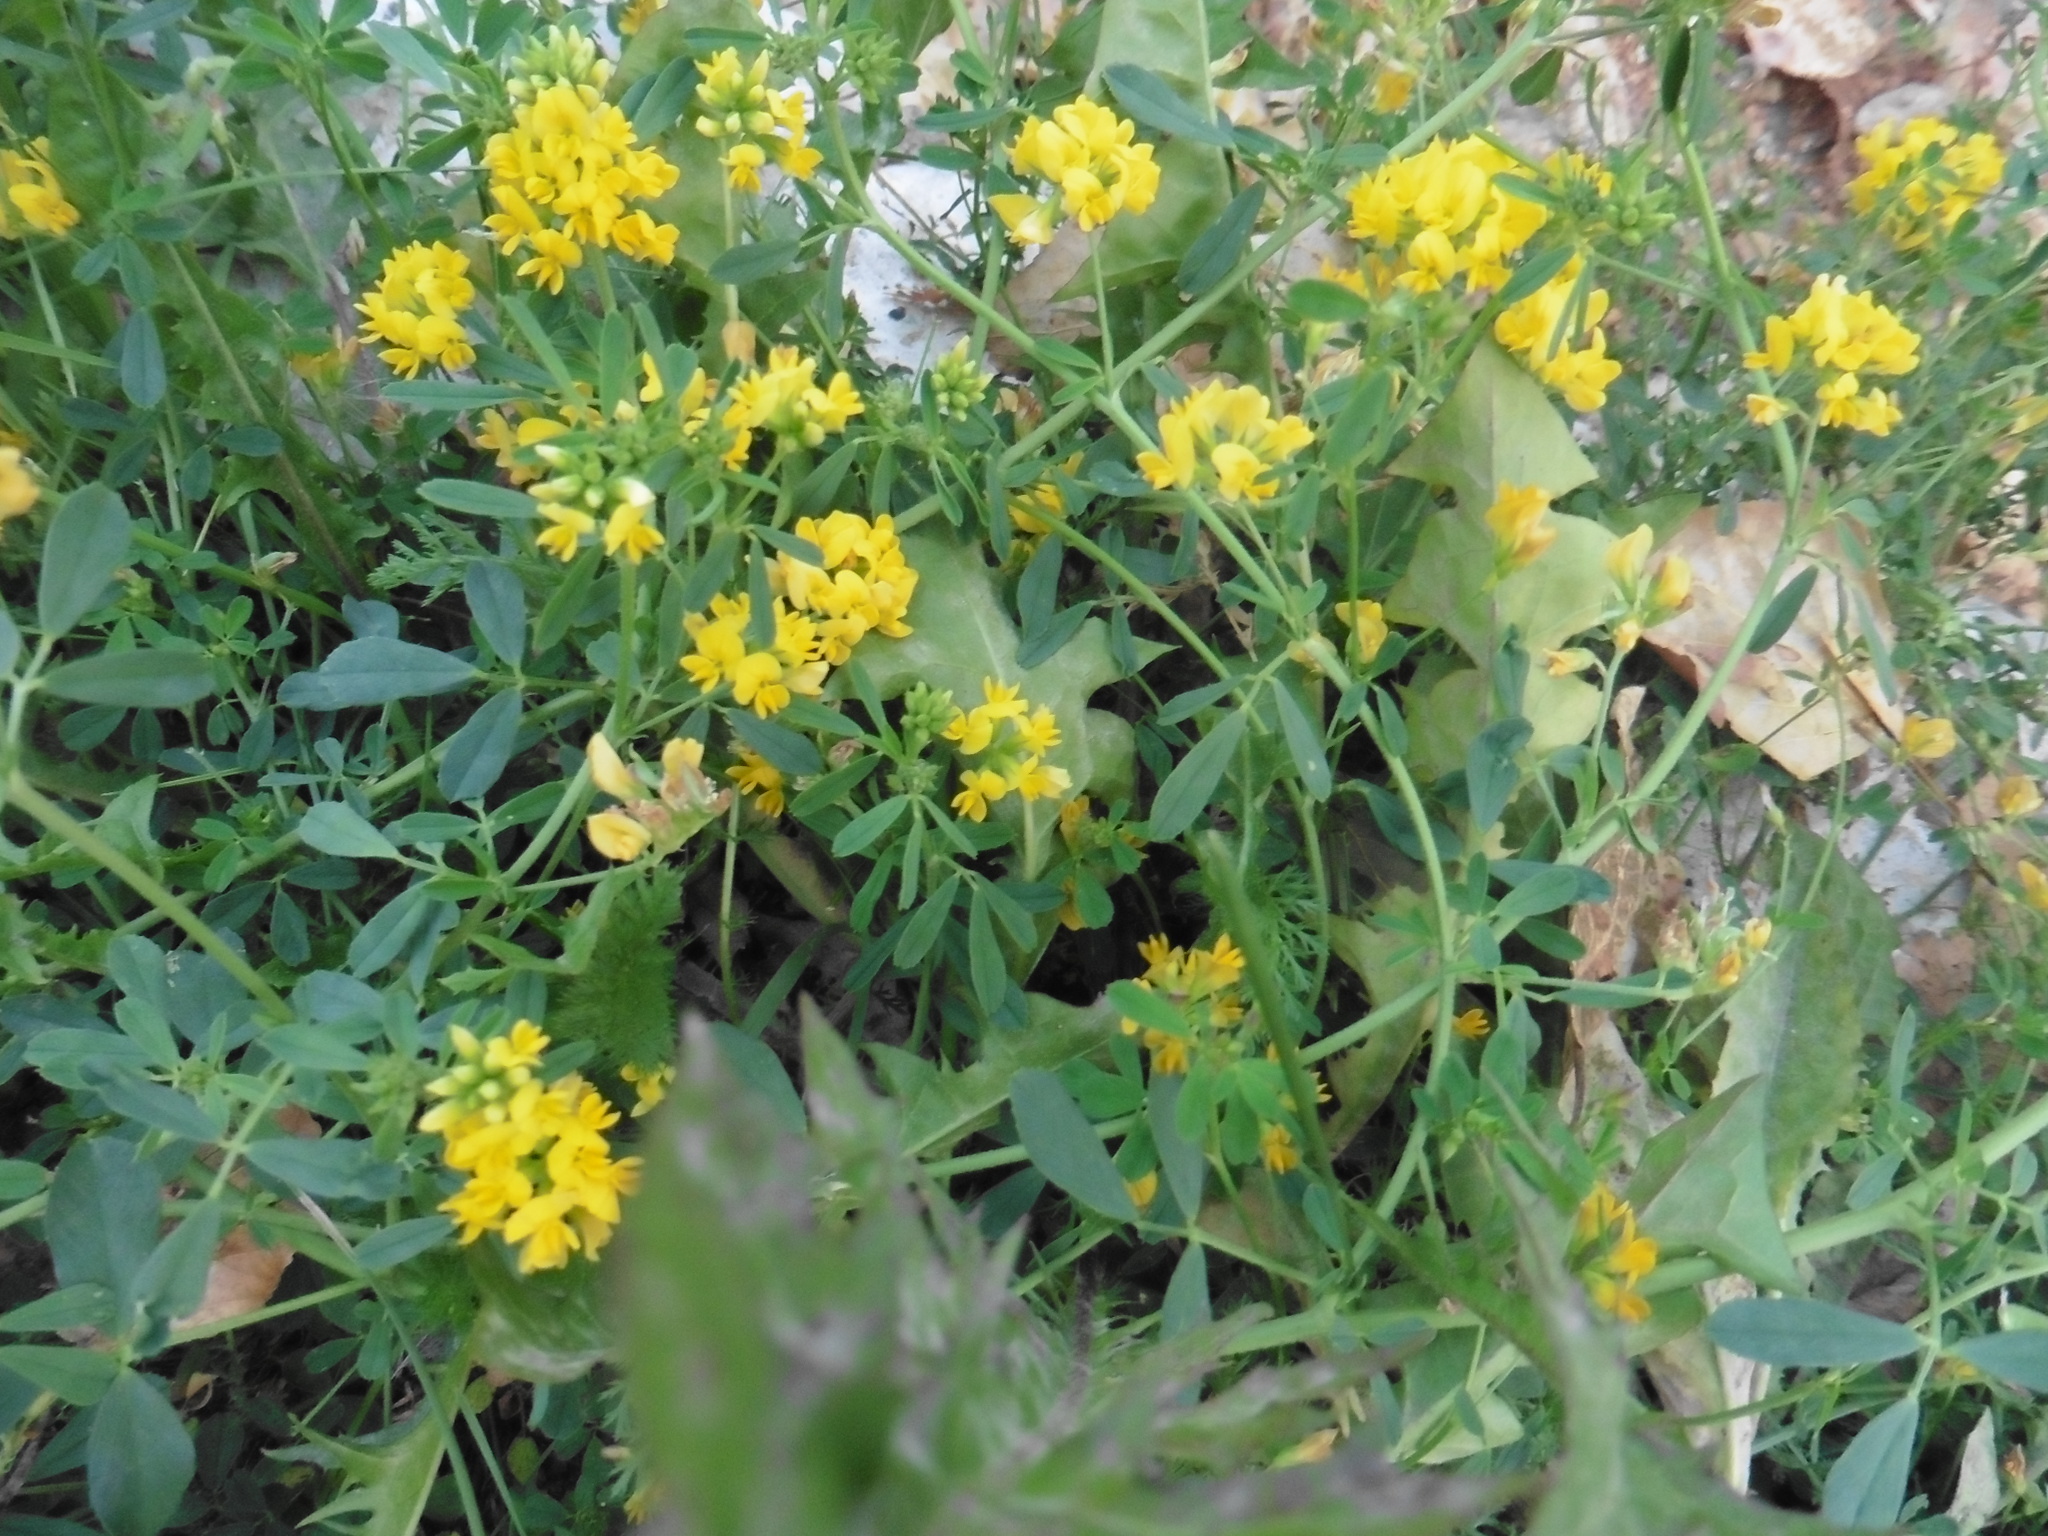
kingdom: Plantae
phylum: Tracheophyta
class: Magnoliopsida
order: Fabales
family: Fabaceae
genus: Medicago
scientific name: Medicago falcata
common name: Sickle medick
